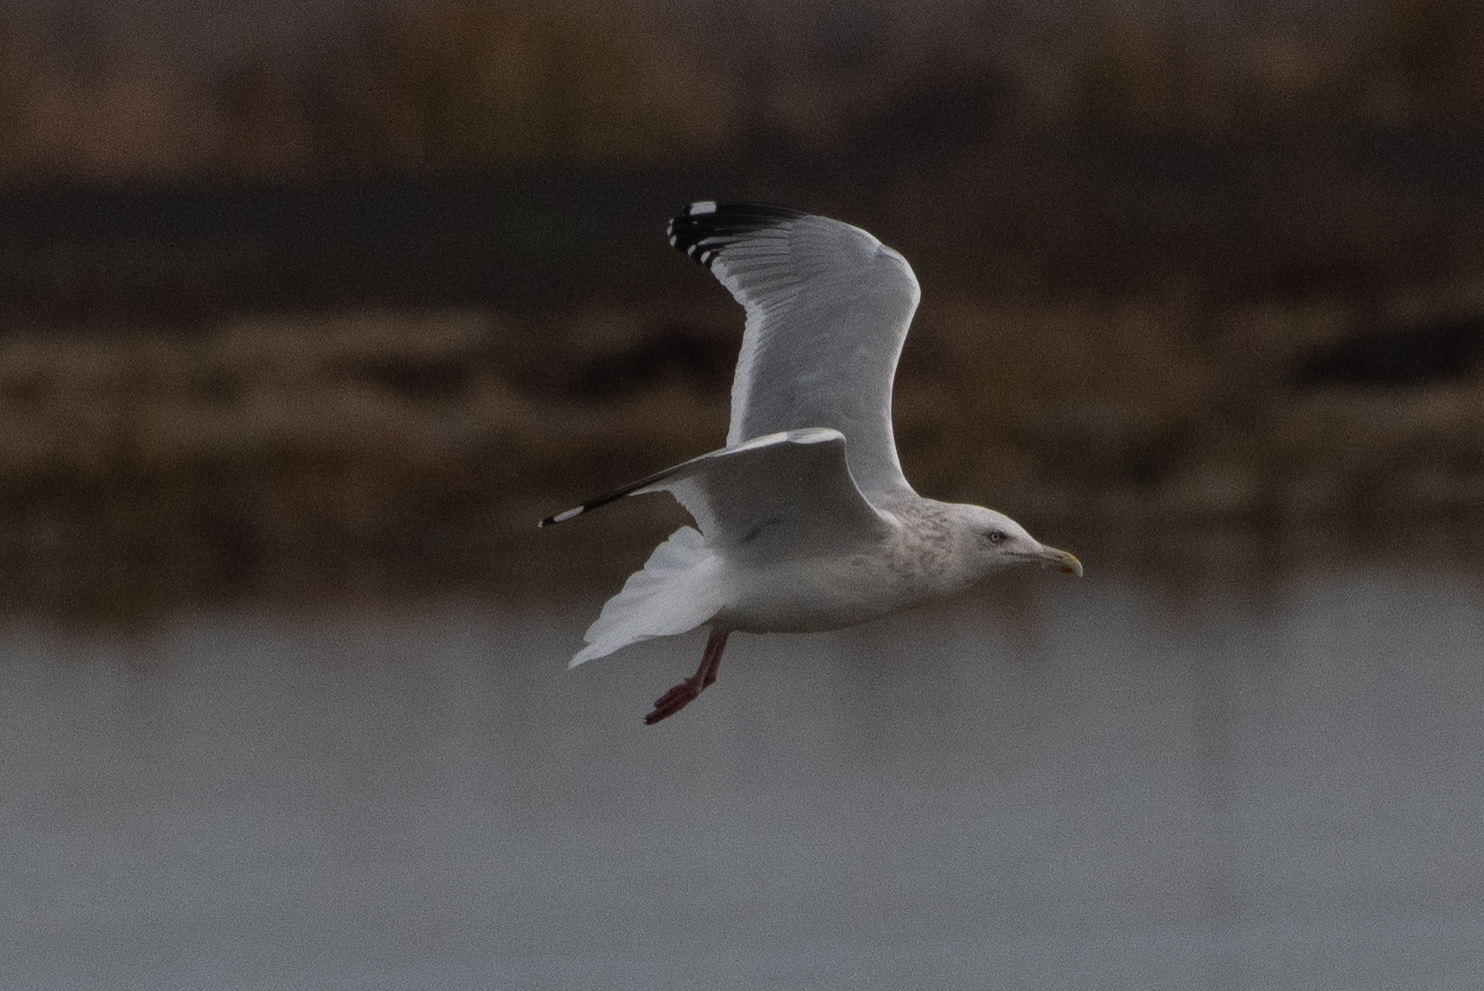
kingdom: Animalia
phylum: Chordata
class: Aves
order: Charadriiformes
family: Laridae
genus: Larus
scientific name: Larus argentatus
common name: Herring gull
